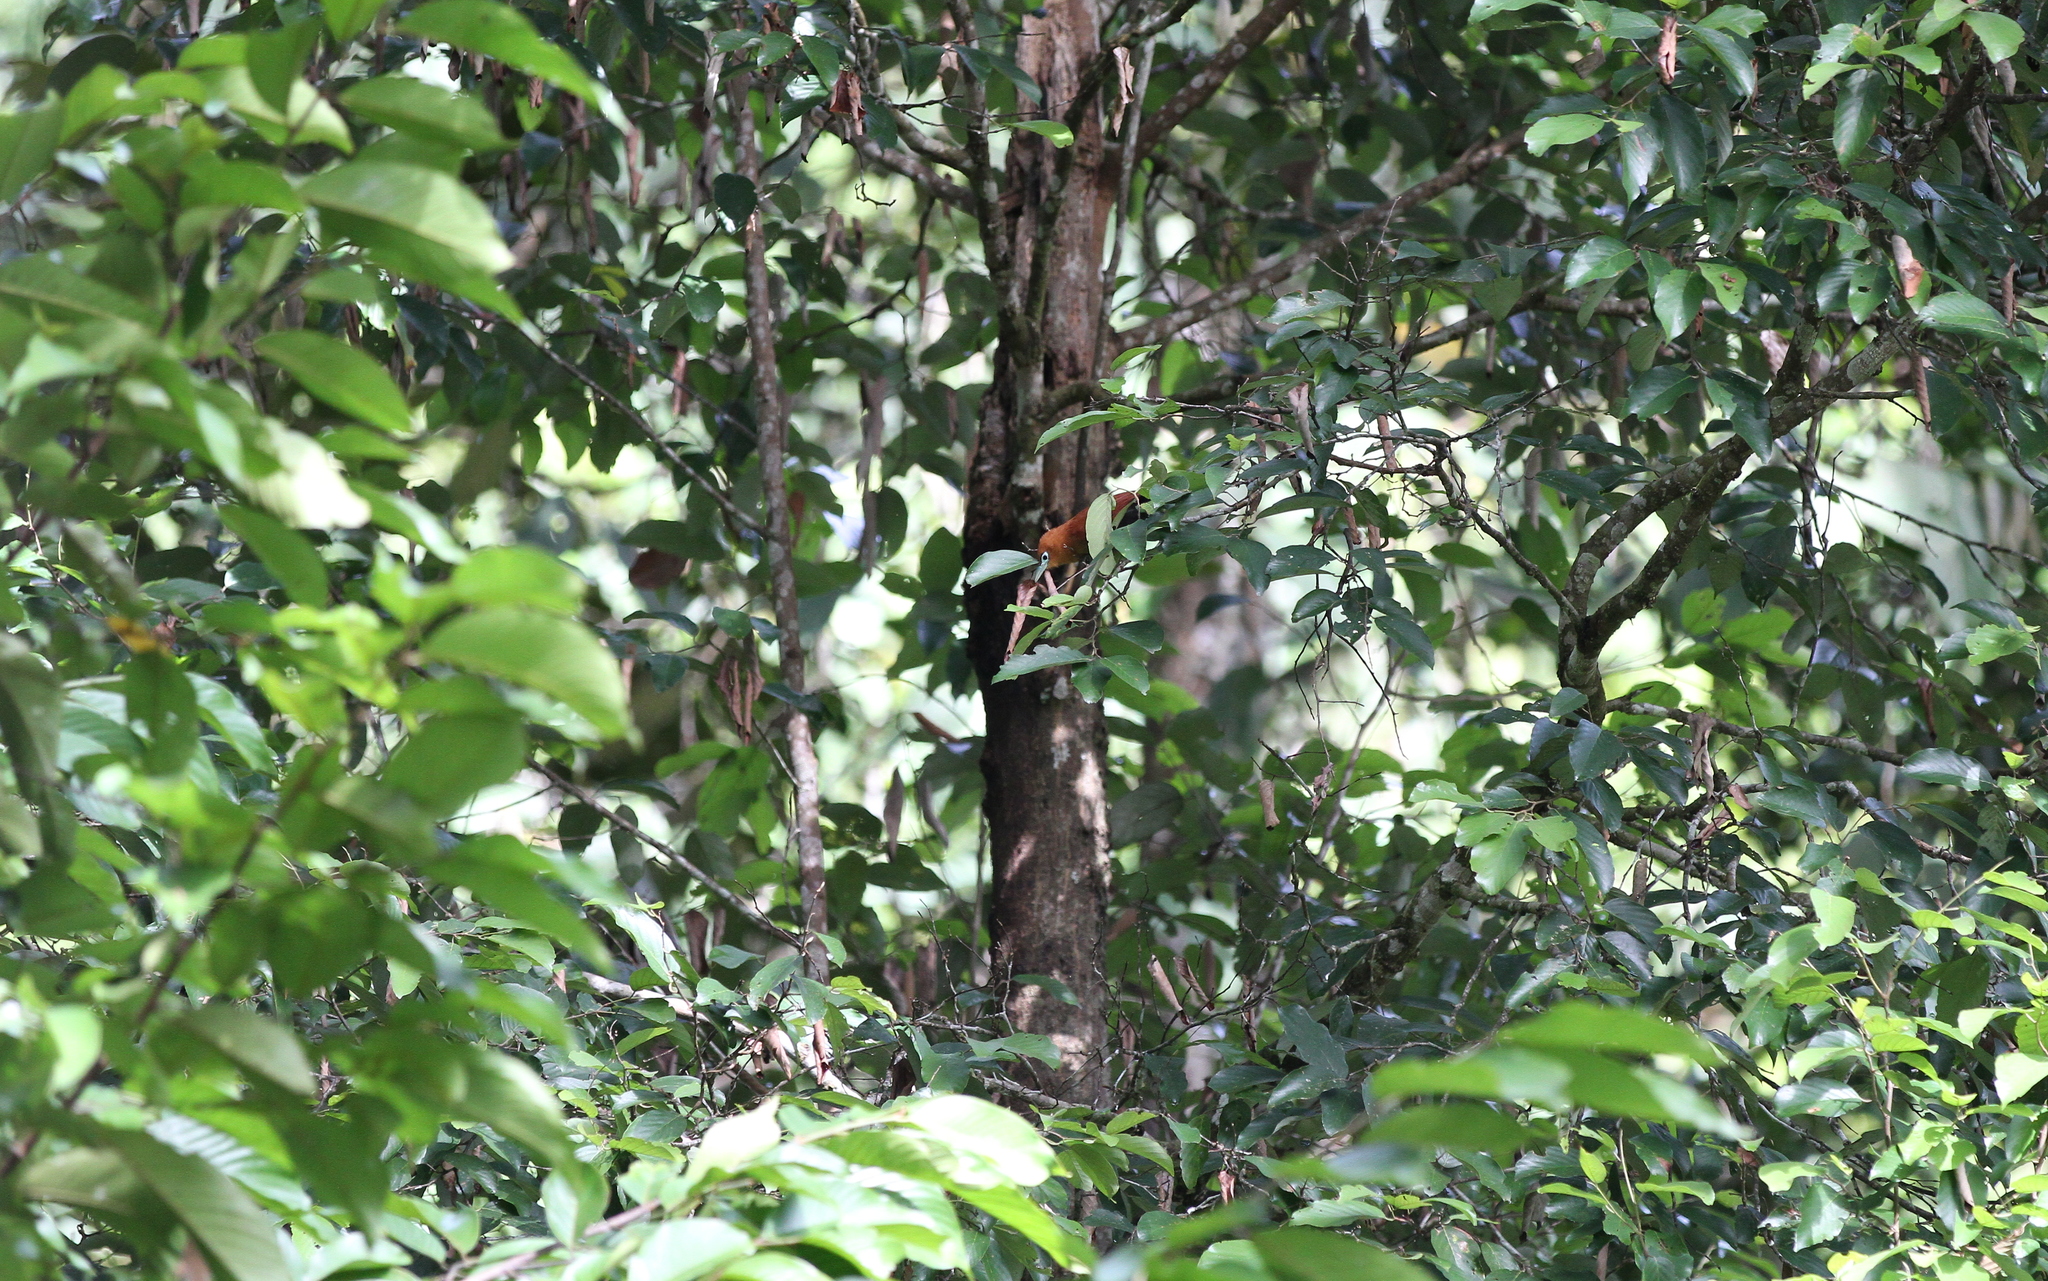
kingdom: Animalia
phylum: Chordata
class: Aves
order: Cuculiformes
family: Cuculidae
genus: Rhinortha
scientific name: Rhinortha chlorophaea
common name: Raffles's malkoha
